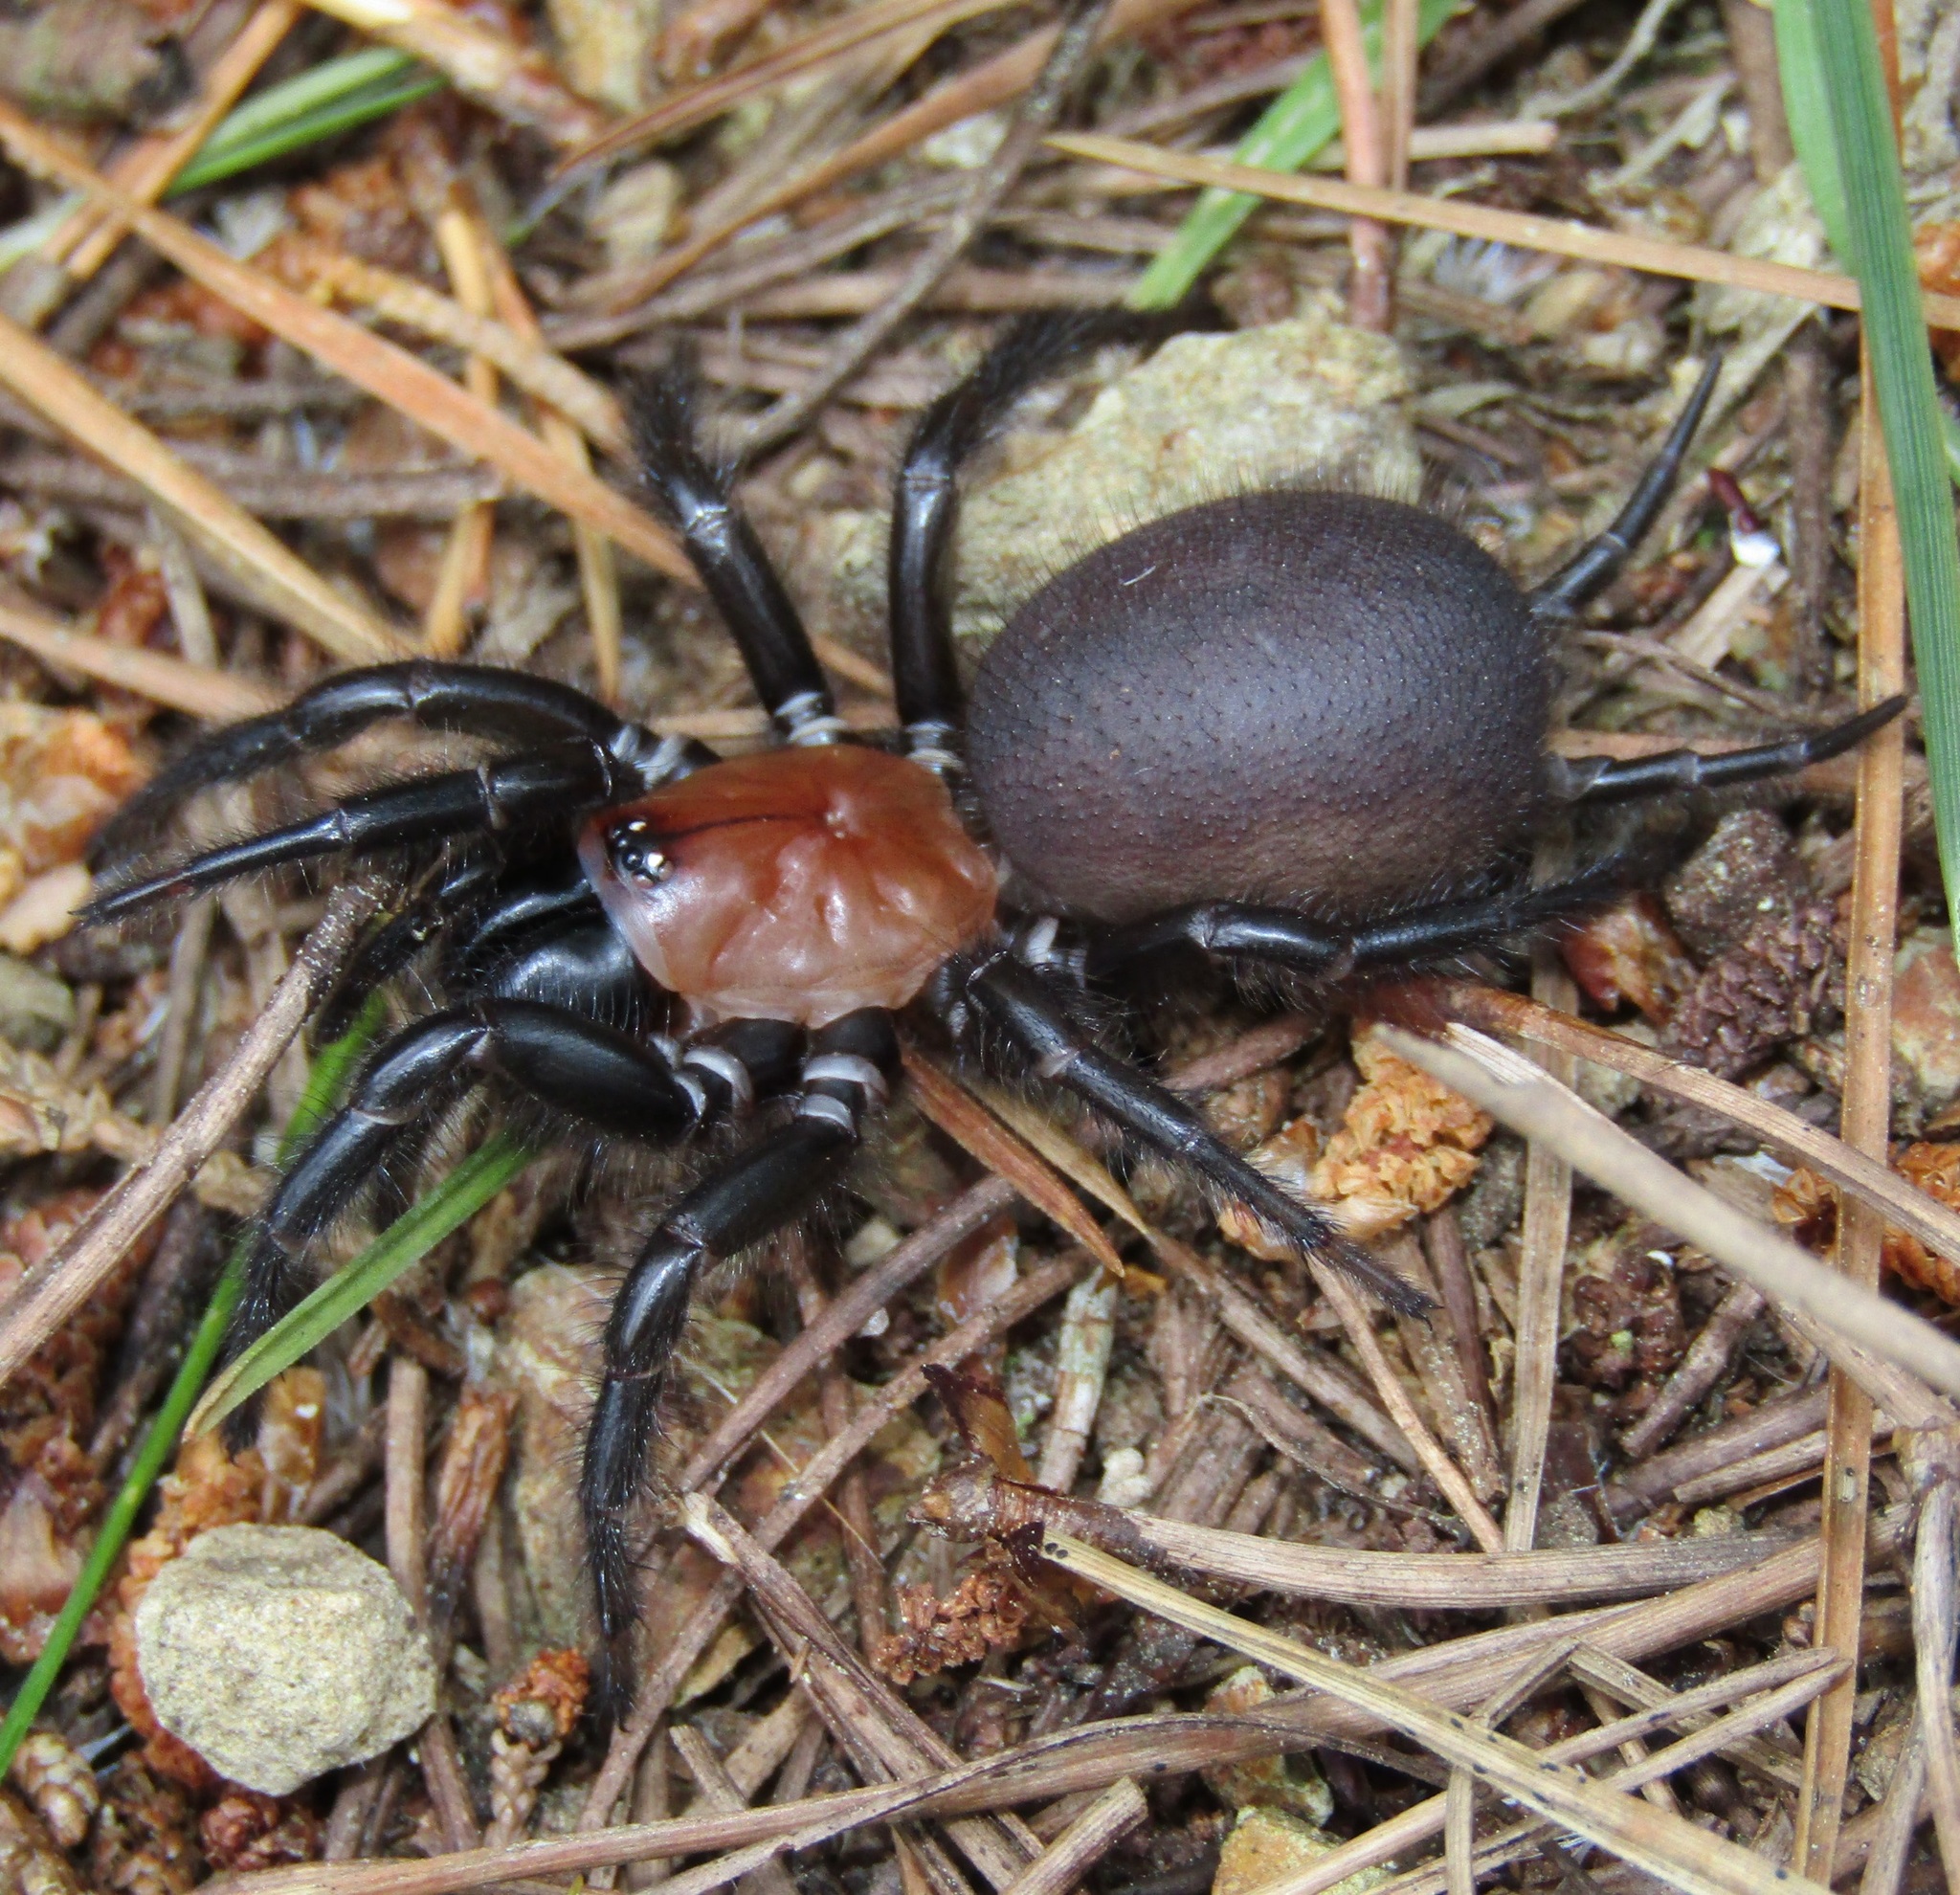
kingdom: Animalia
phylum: Arthropoda
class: Arachnida
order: Araneae
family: Porrhothelidae
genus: Porrhothele
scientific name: Porrhothele antipodiana
